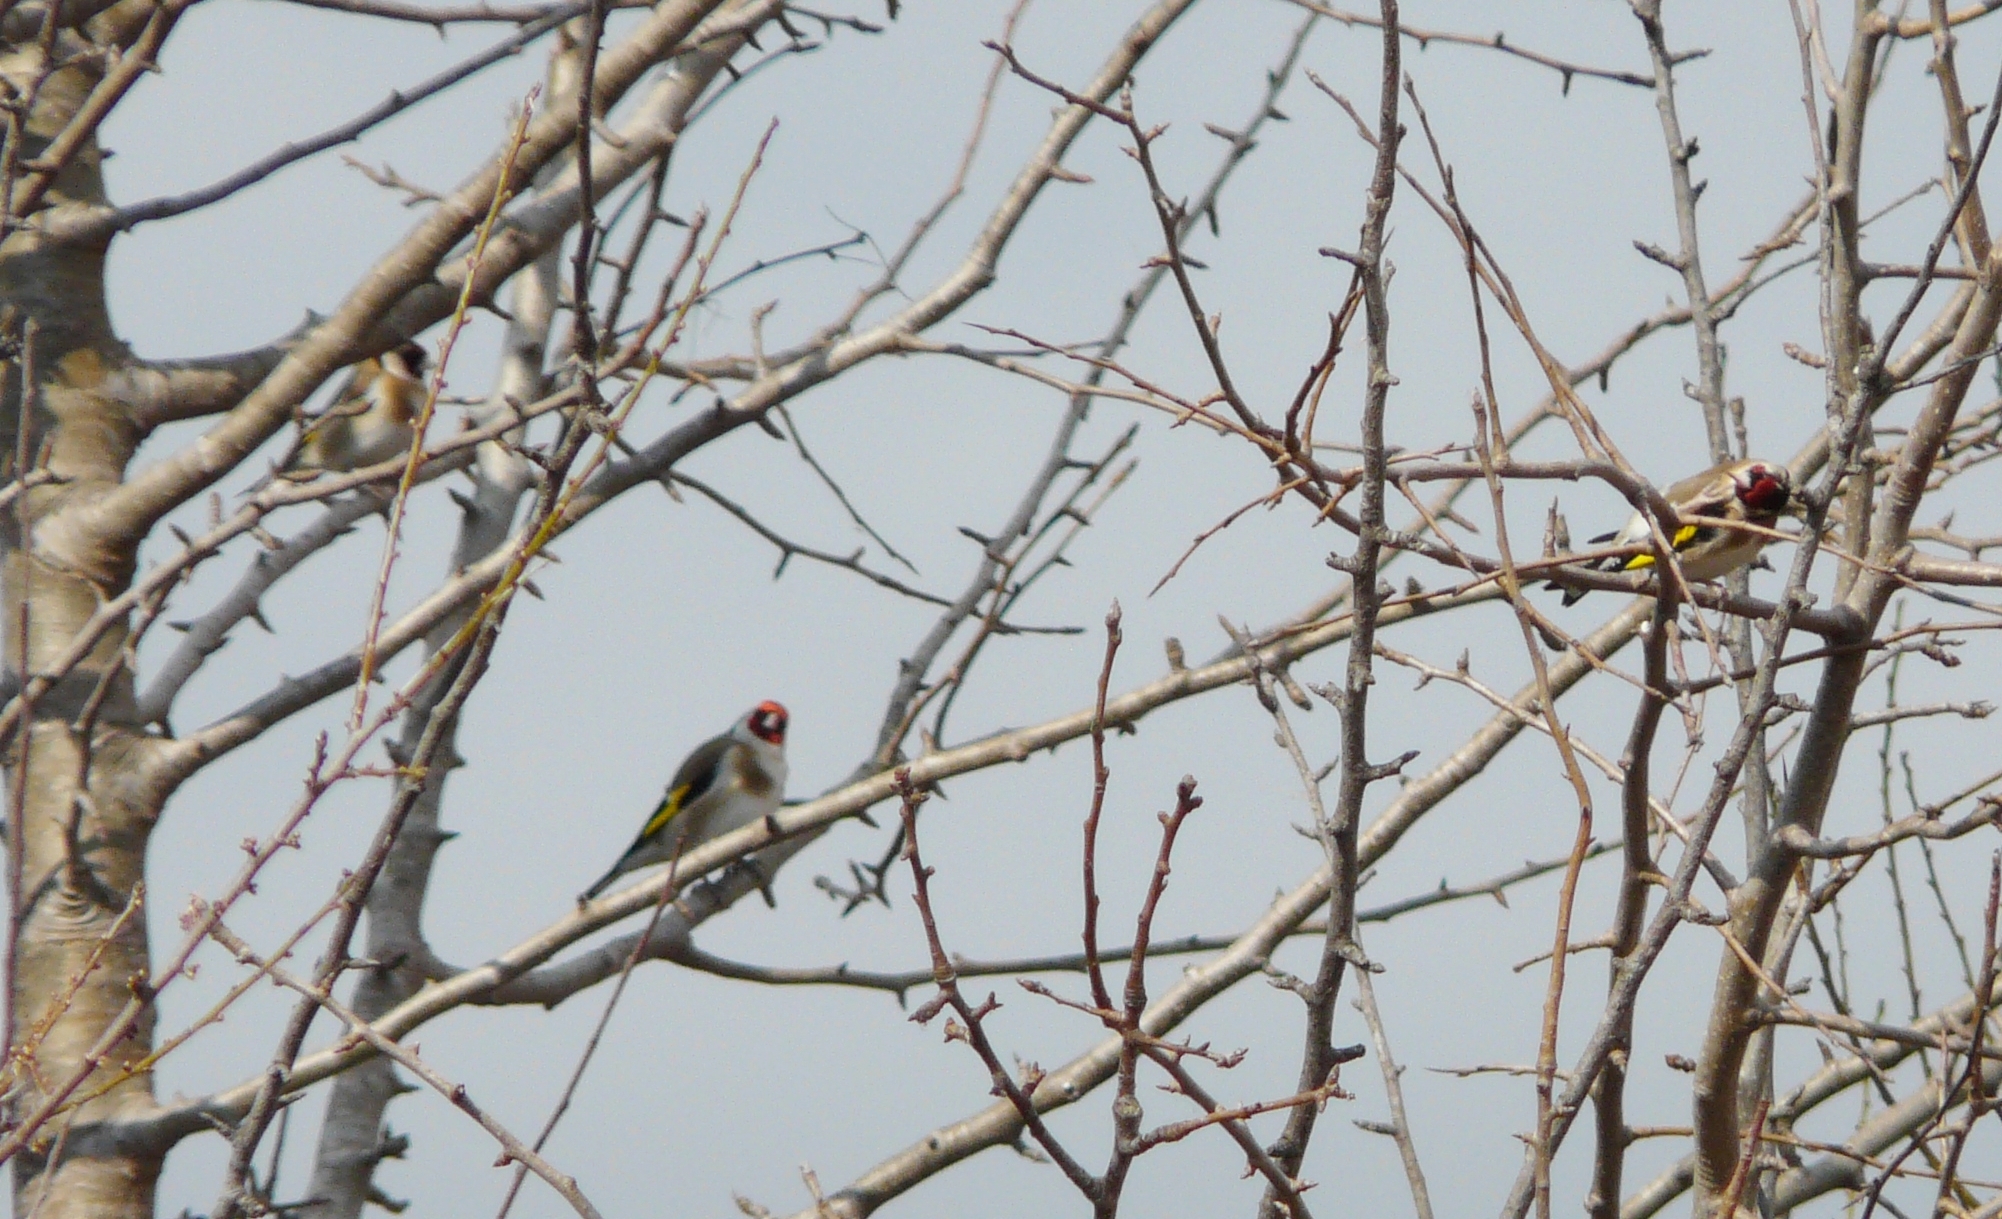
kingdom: Animalia
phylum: Chordata
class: Aves
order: Passeriformes
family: Fringillidae
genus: Carduelis
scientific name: Carduelis carduelis
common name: European goldfinch
